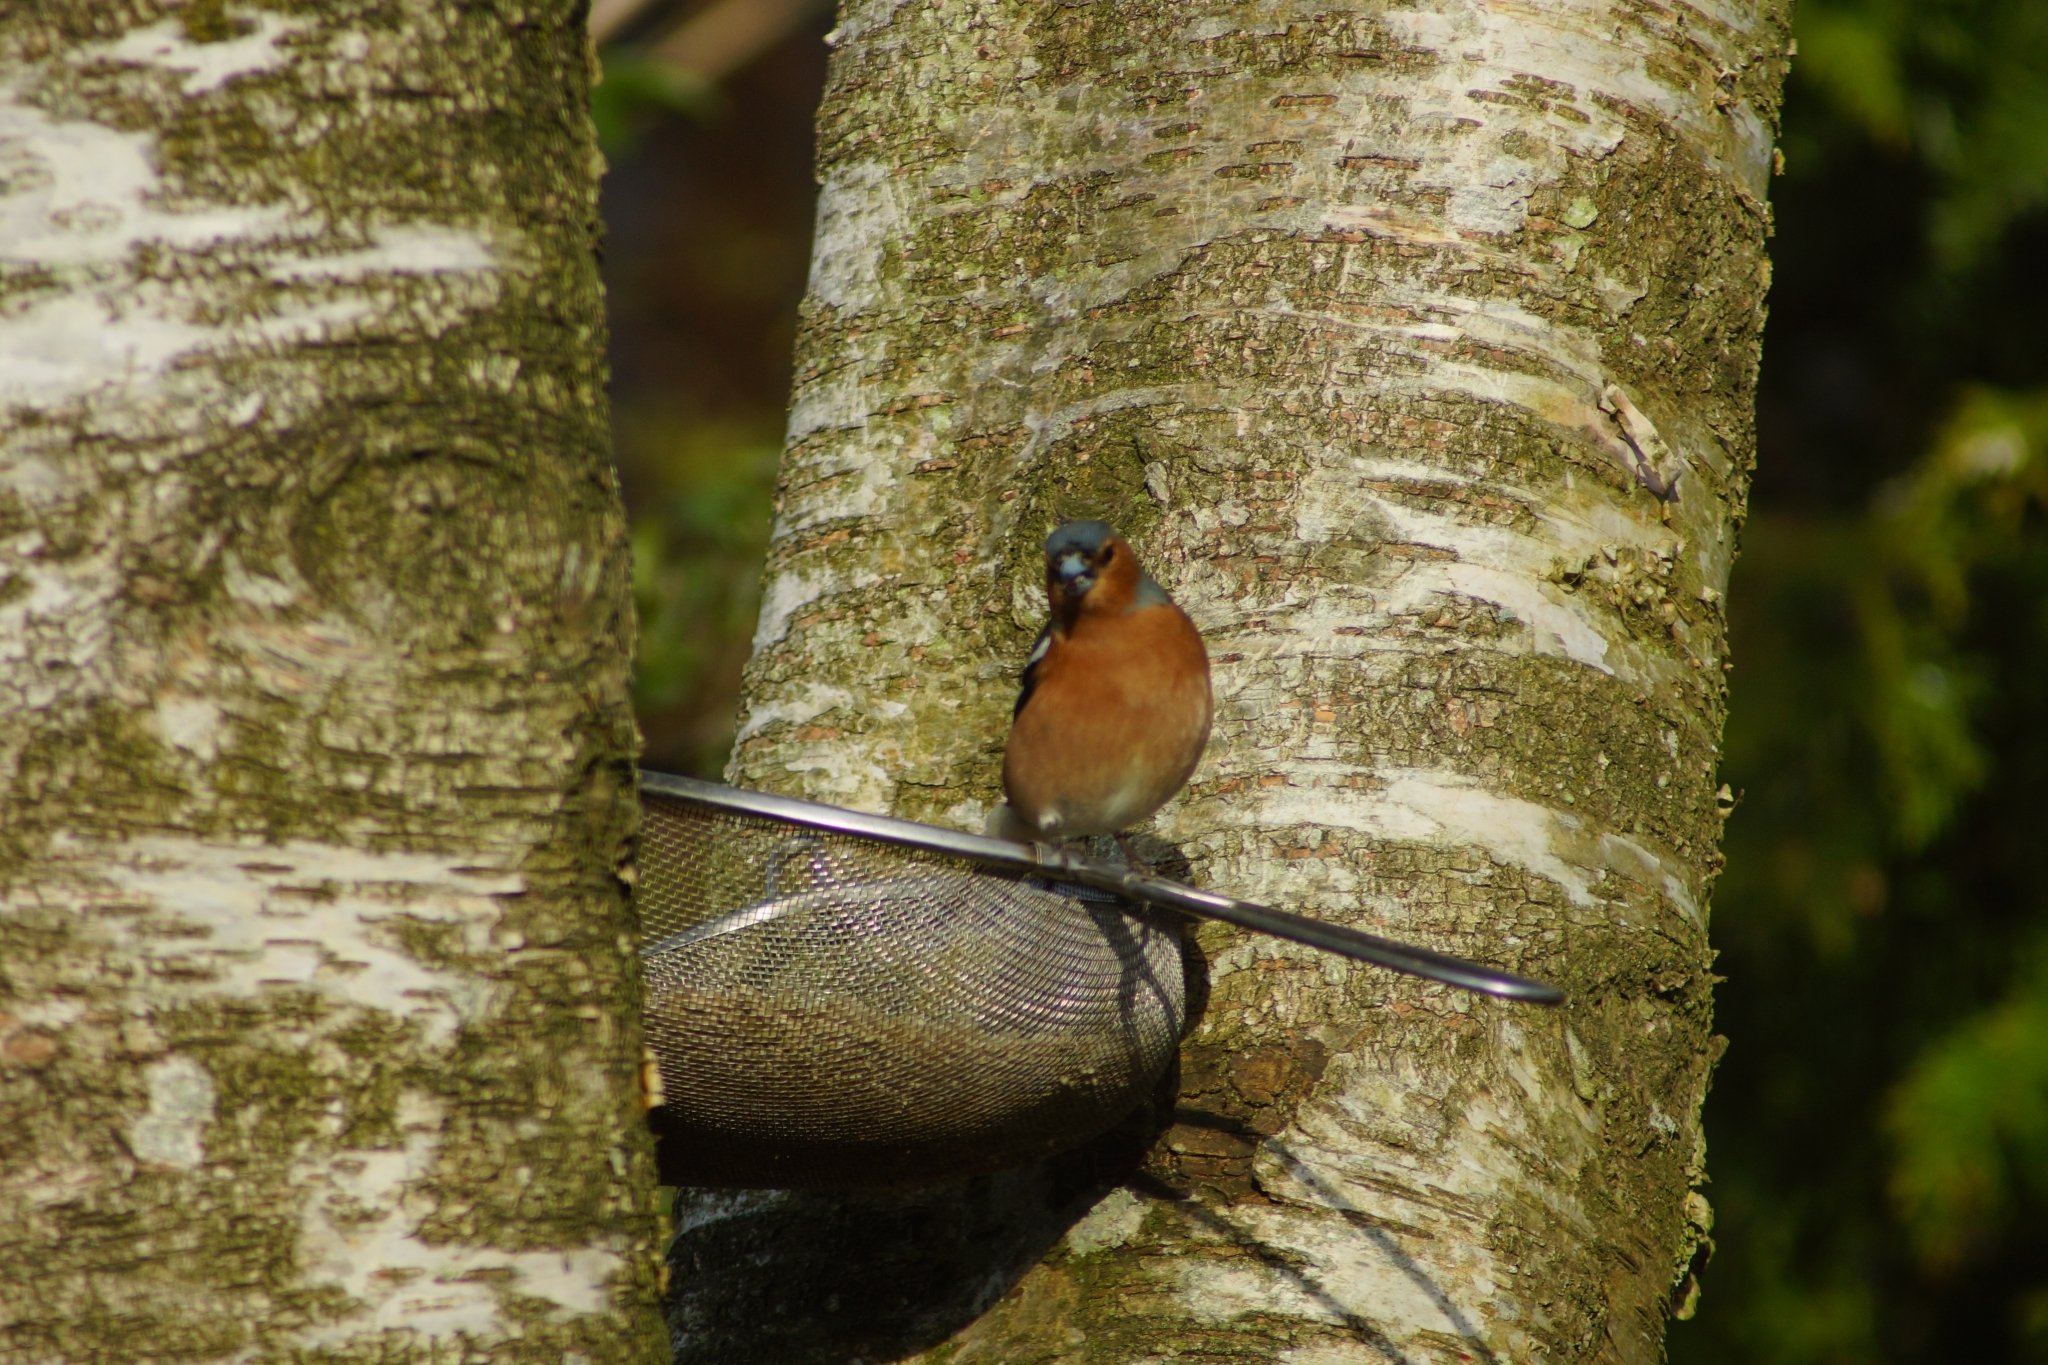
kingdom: Animalia
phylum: Chordata
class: Aves
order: Passeriformes
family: Fringillidae
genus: Fringilla
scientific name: Fringilla coelebs
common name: Common chaffinch
